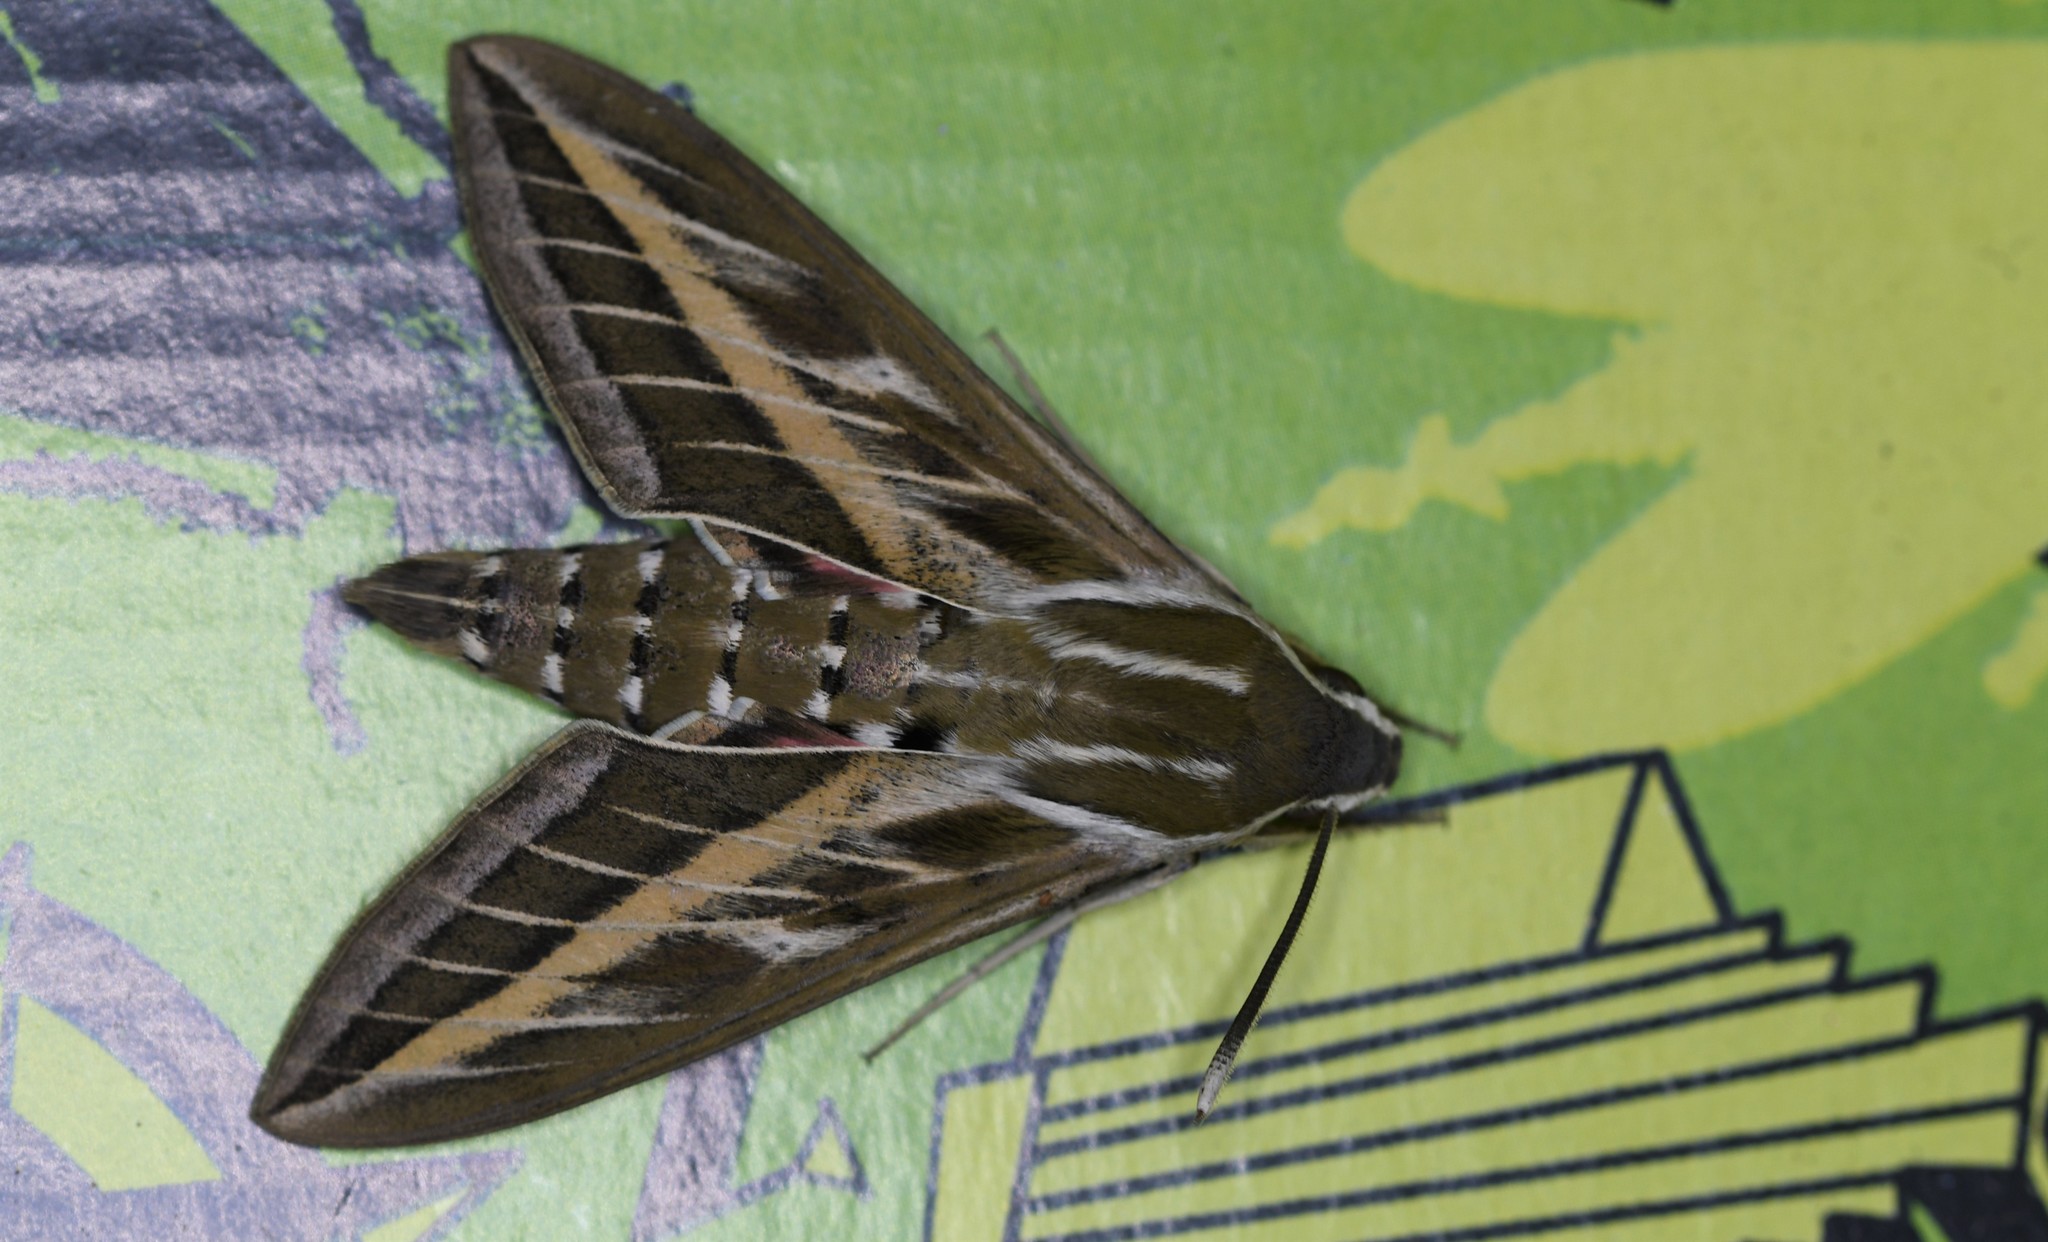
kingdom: Animalia
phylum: Arthropoda
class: Insecta
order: Lepidoptera
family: Sphingidae
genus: Hyles
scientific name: Hyles livornica
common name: Striped hawk-moth
